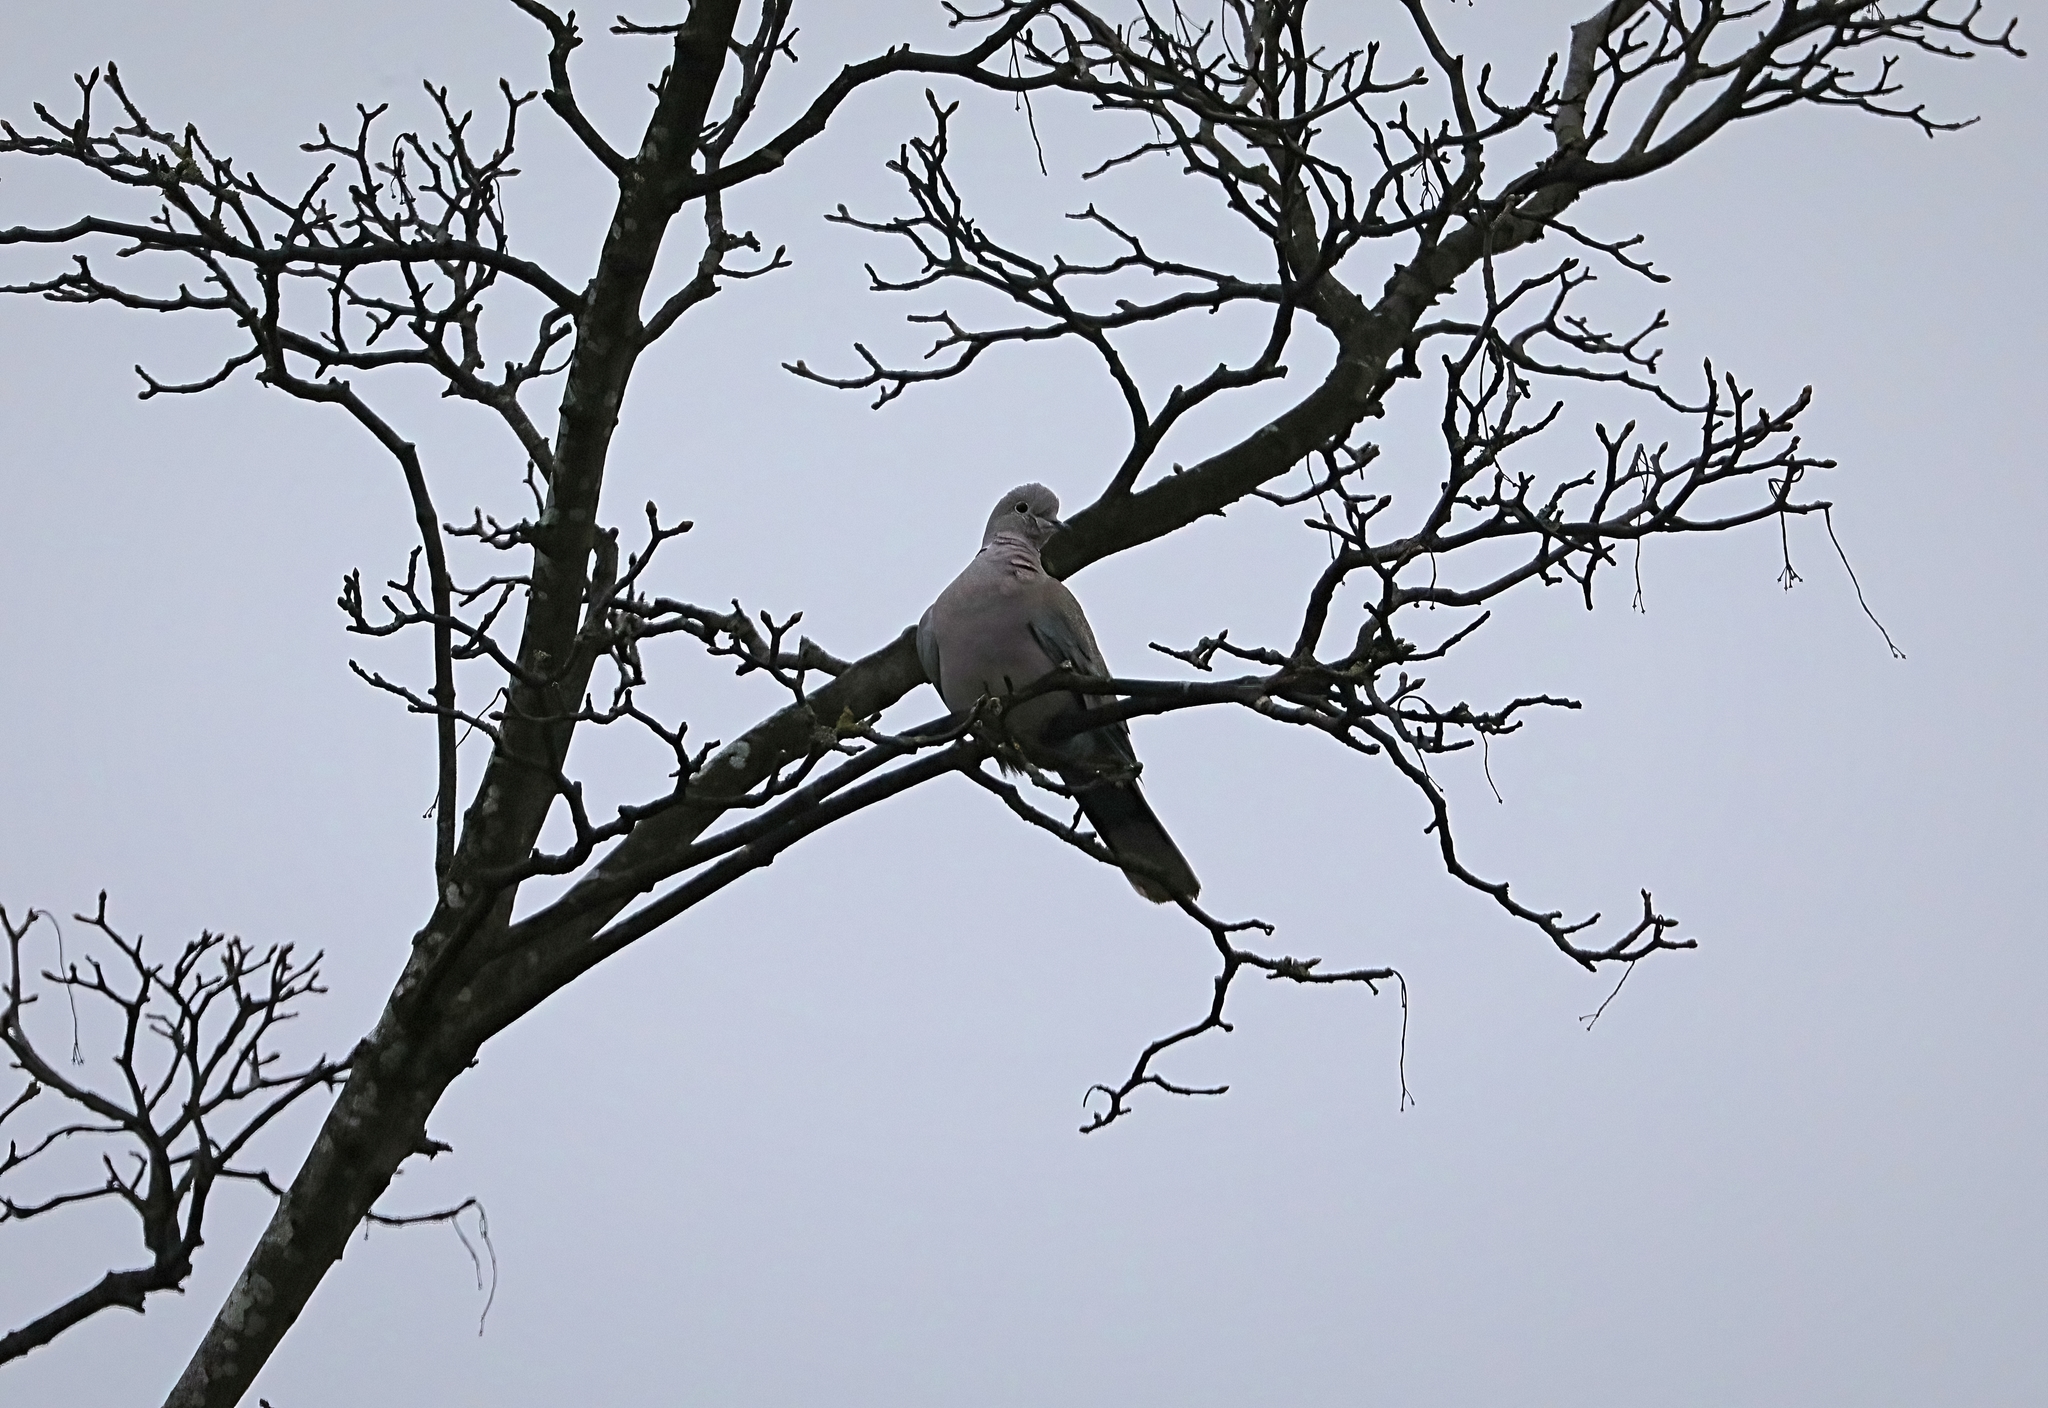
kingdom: Animalia
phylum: Chordata
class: Aves
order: Columbiformes
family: Columbidae
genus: Streptopelia
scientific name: Streptopelia decaocto
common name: Eurasian collared dove
